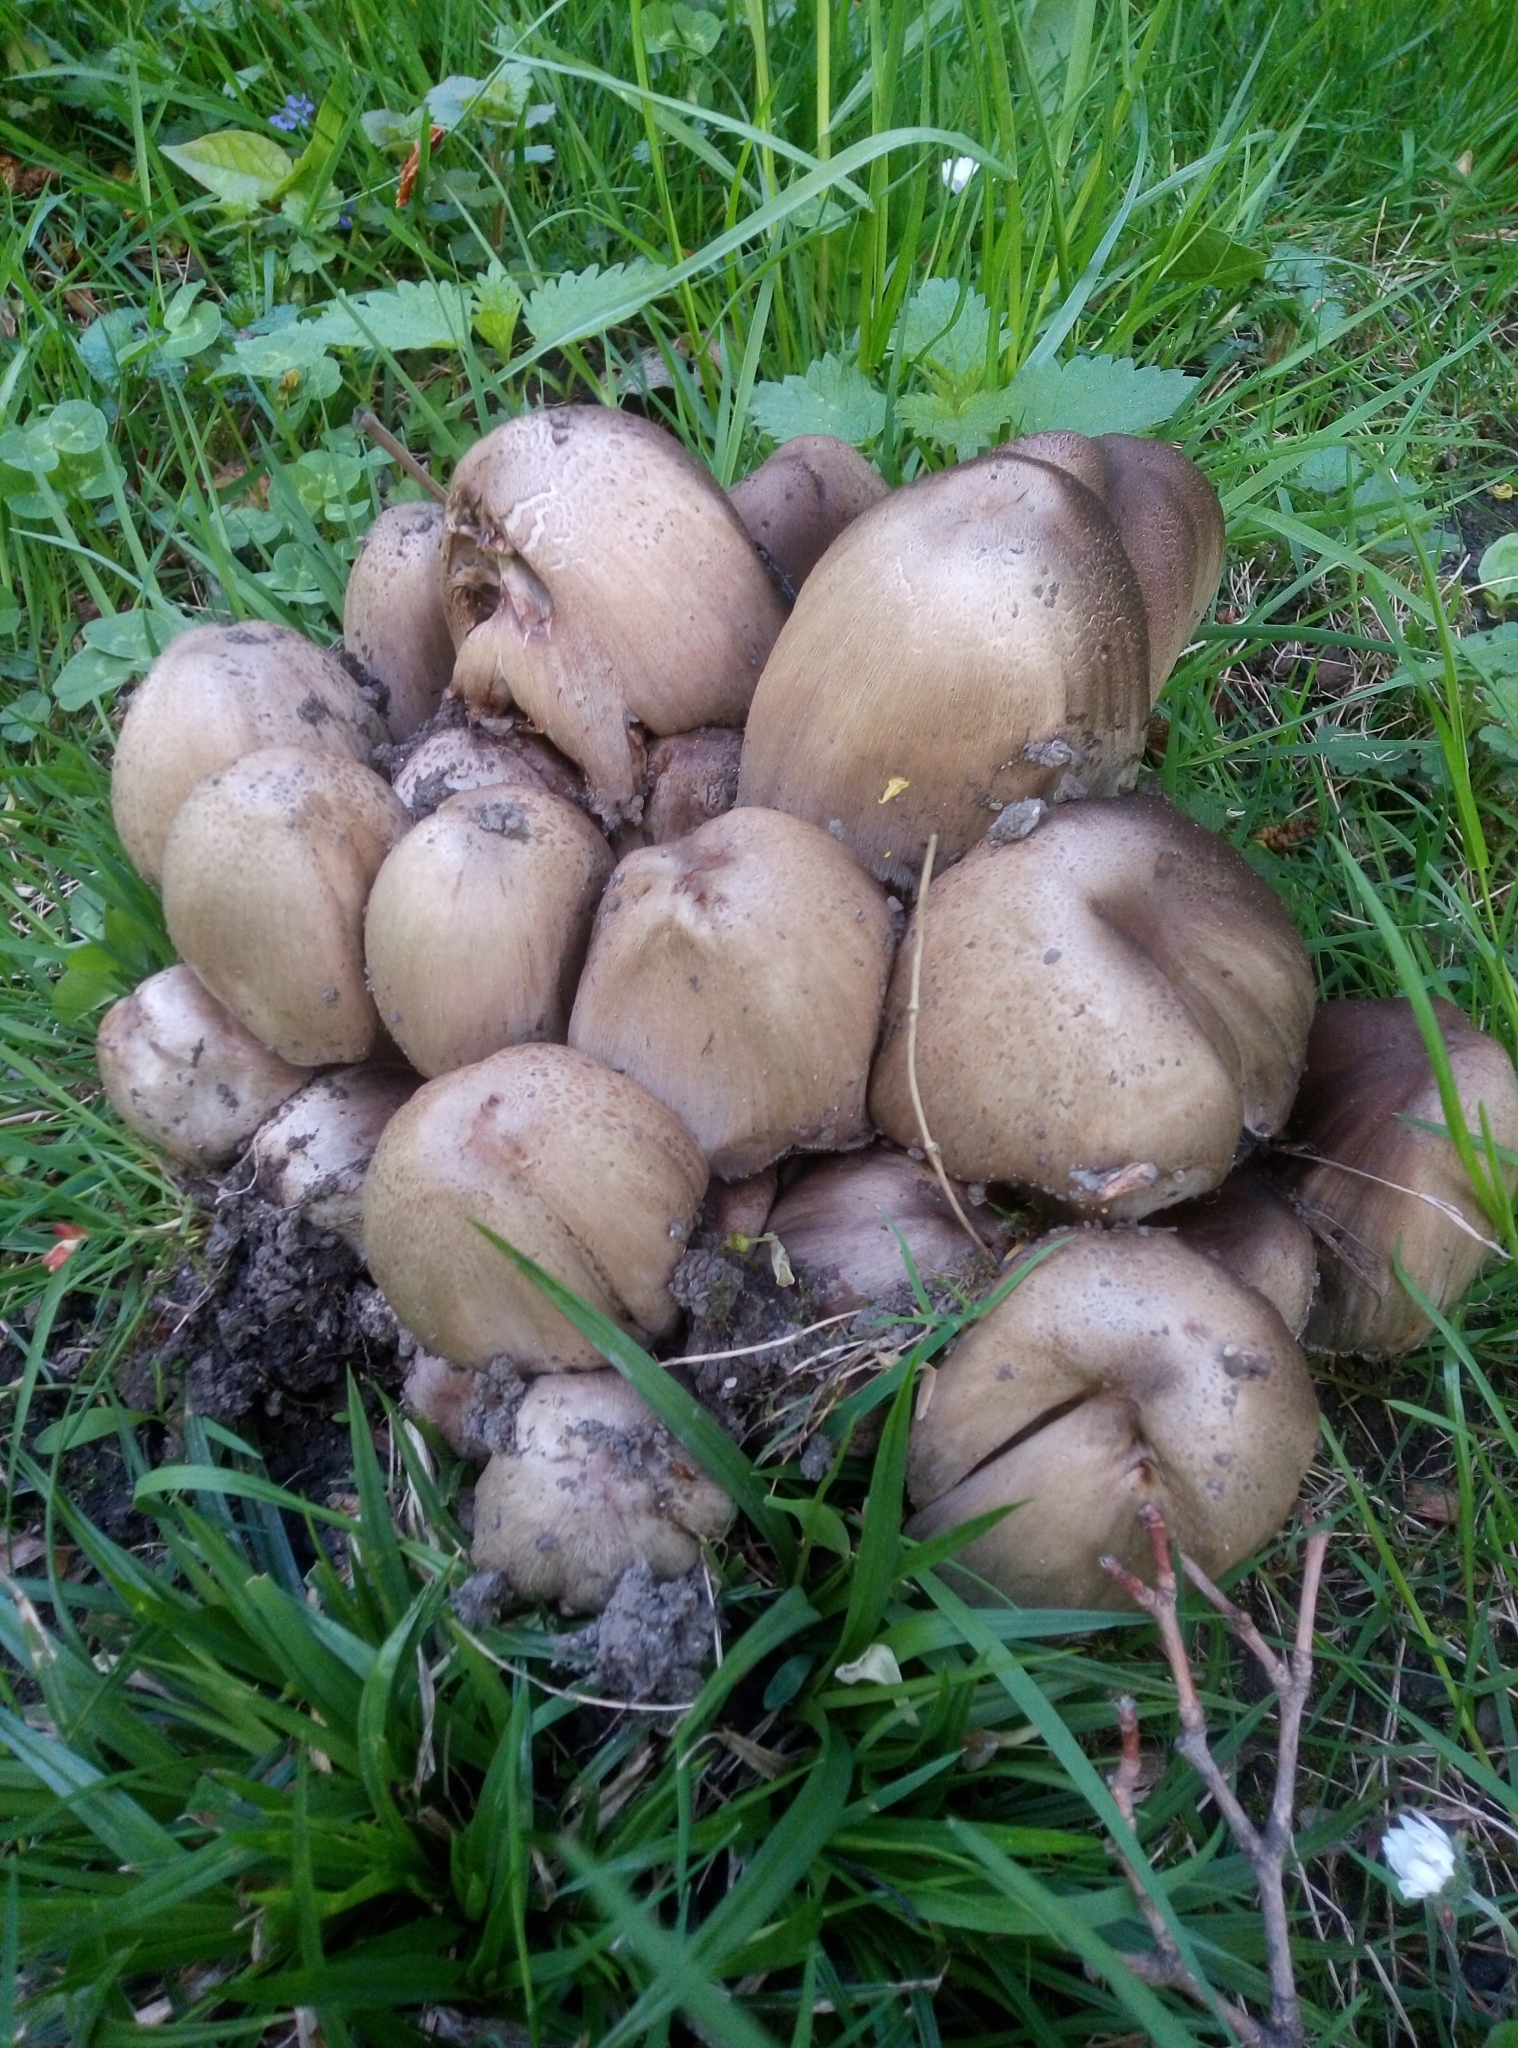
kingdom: Fungi
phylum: Basidiomycota
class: Agaricomycetes
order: Agaricales
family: Psathyrellaceae
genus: Coprinopsis
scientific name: Coprinopsis
